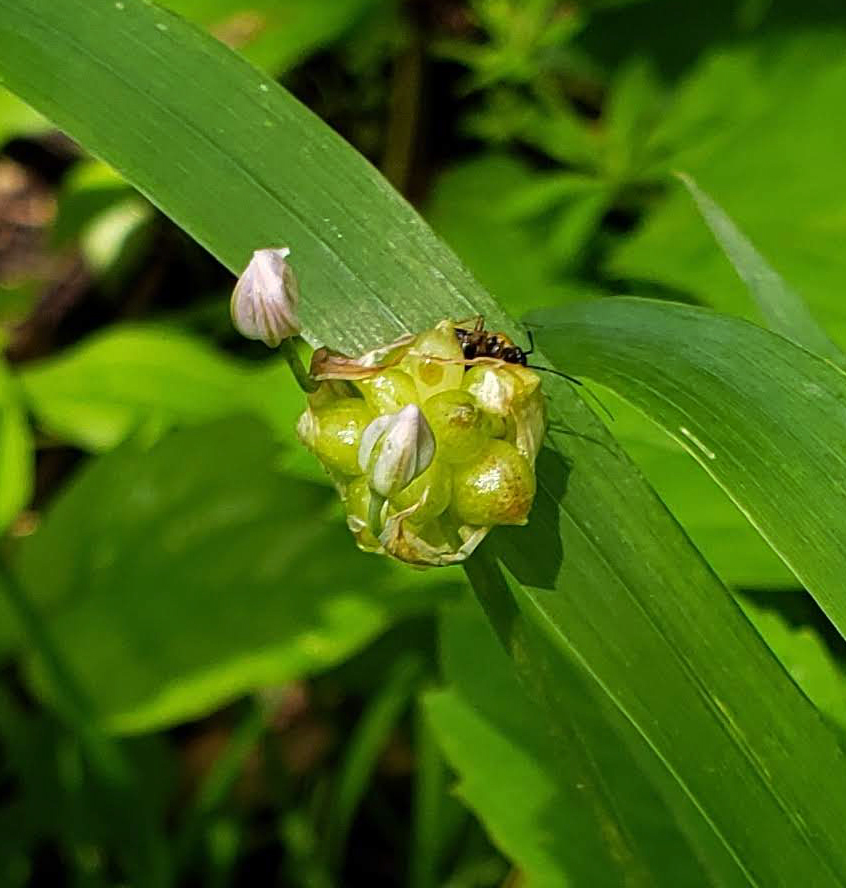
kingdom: Plantae
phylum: Tracheophyta
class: Liliopsida
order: Asparagales
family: Amaryllidaceae
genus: Allium
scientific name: Allium canadense
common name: Meadow garlic
